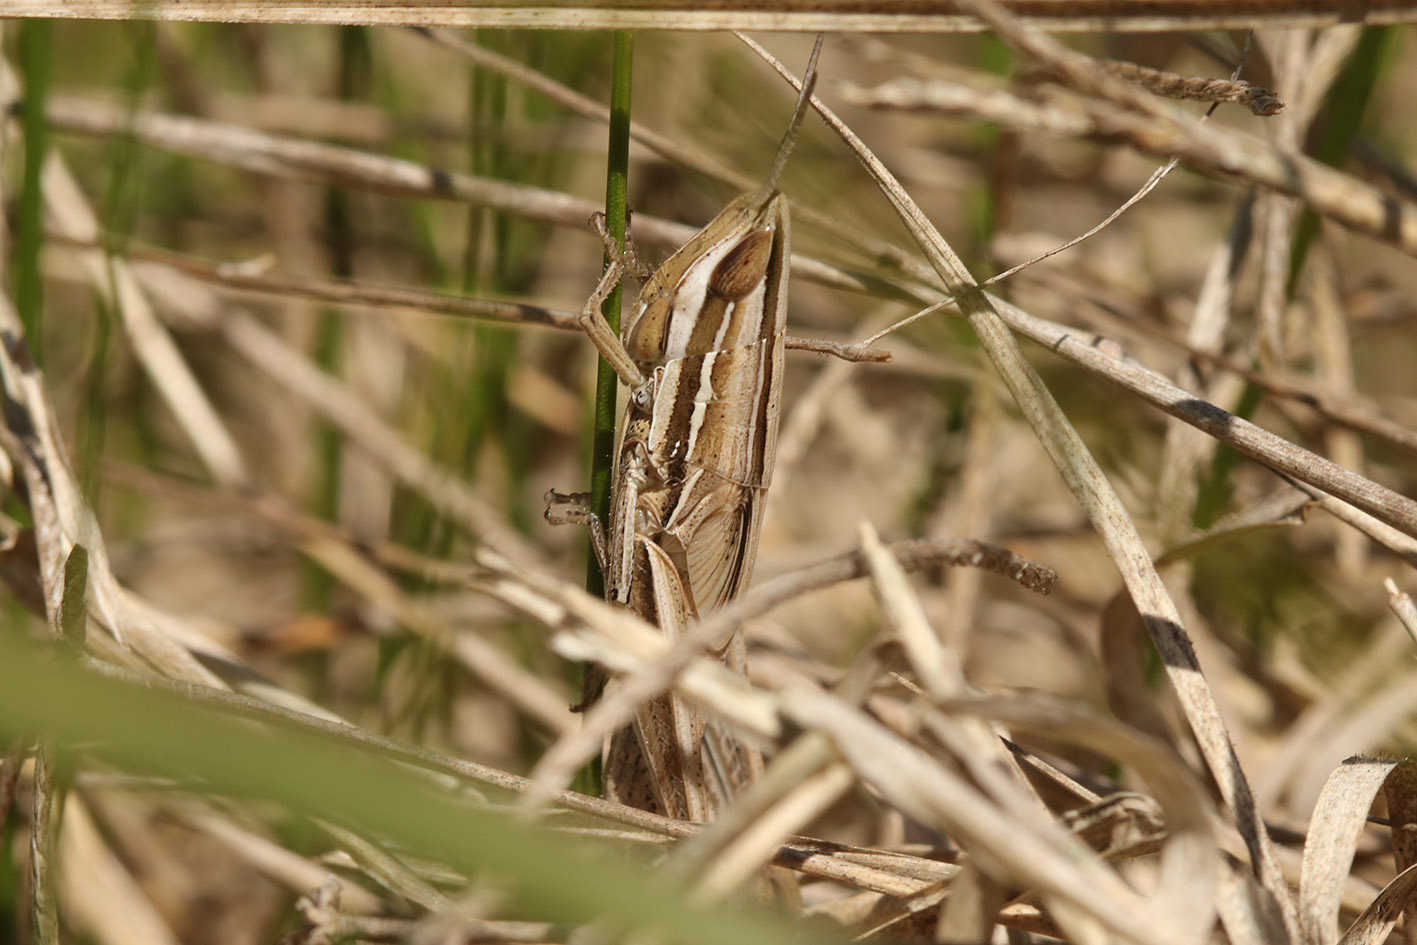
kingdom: Animalia
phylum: Arthropoda
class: Insecta
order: Orthoptera
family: Acrididae
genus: Sinipta
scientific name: Sinipta dalmani
